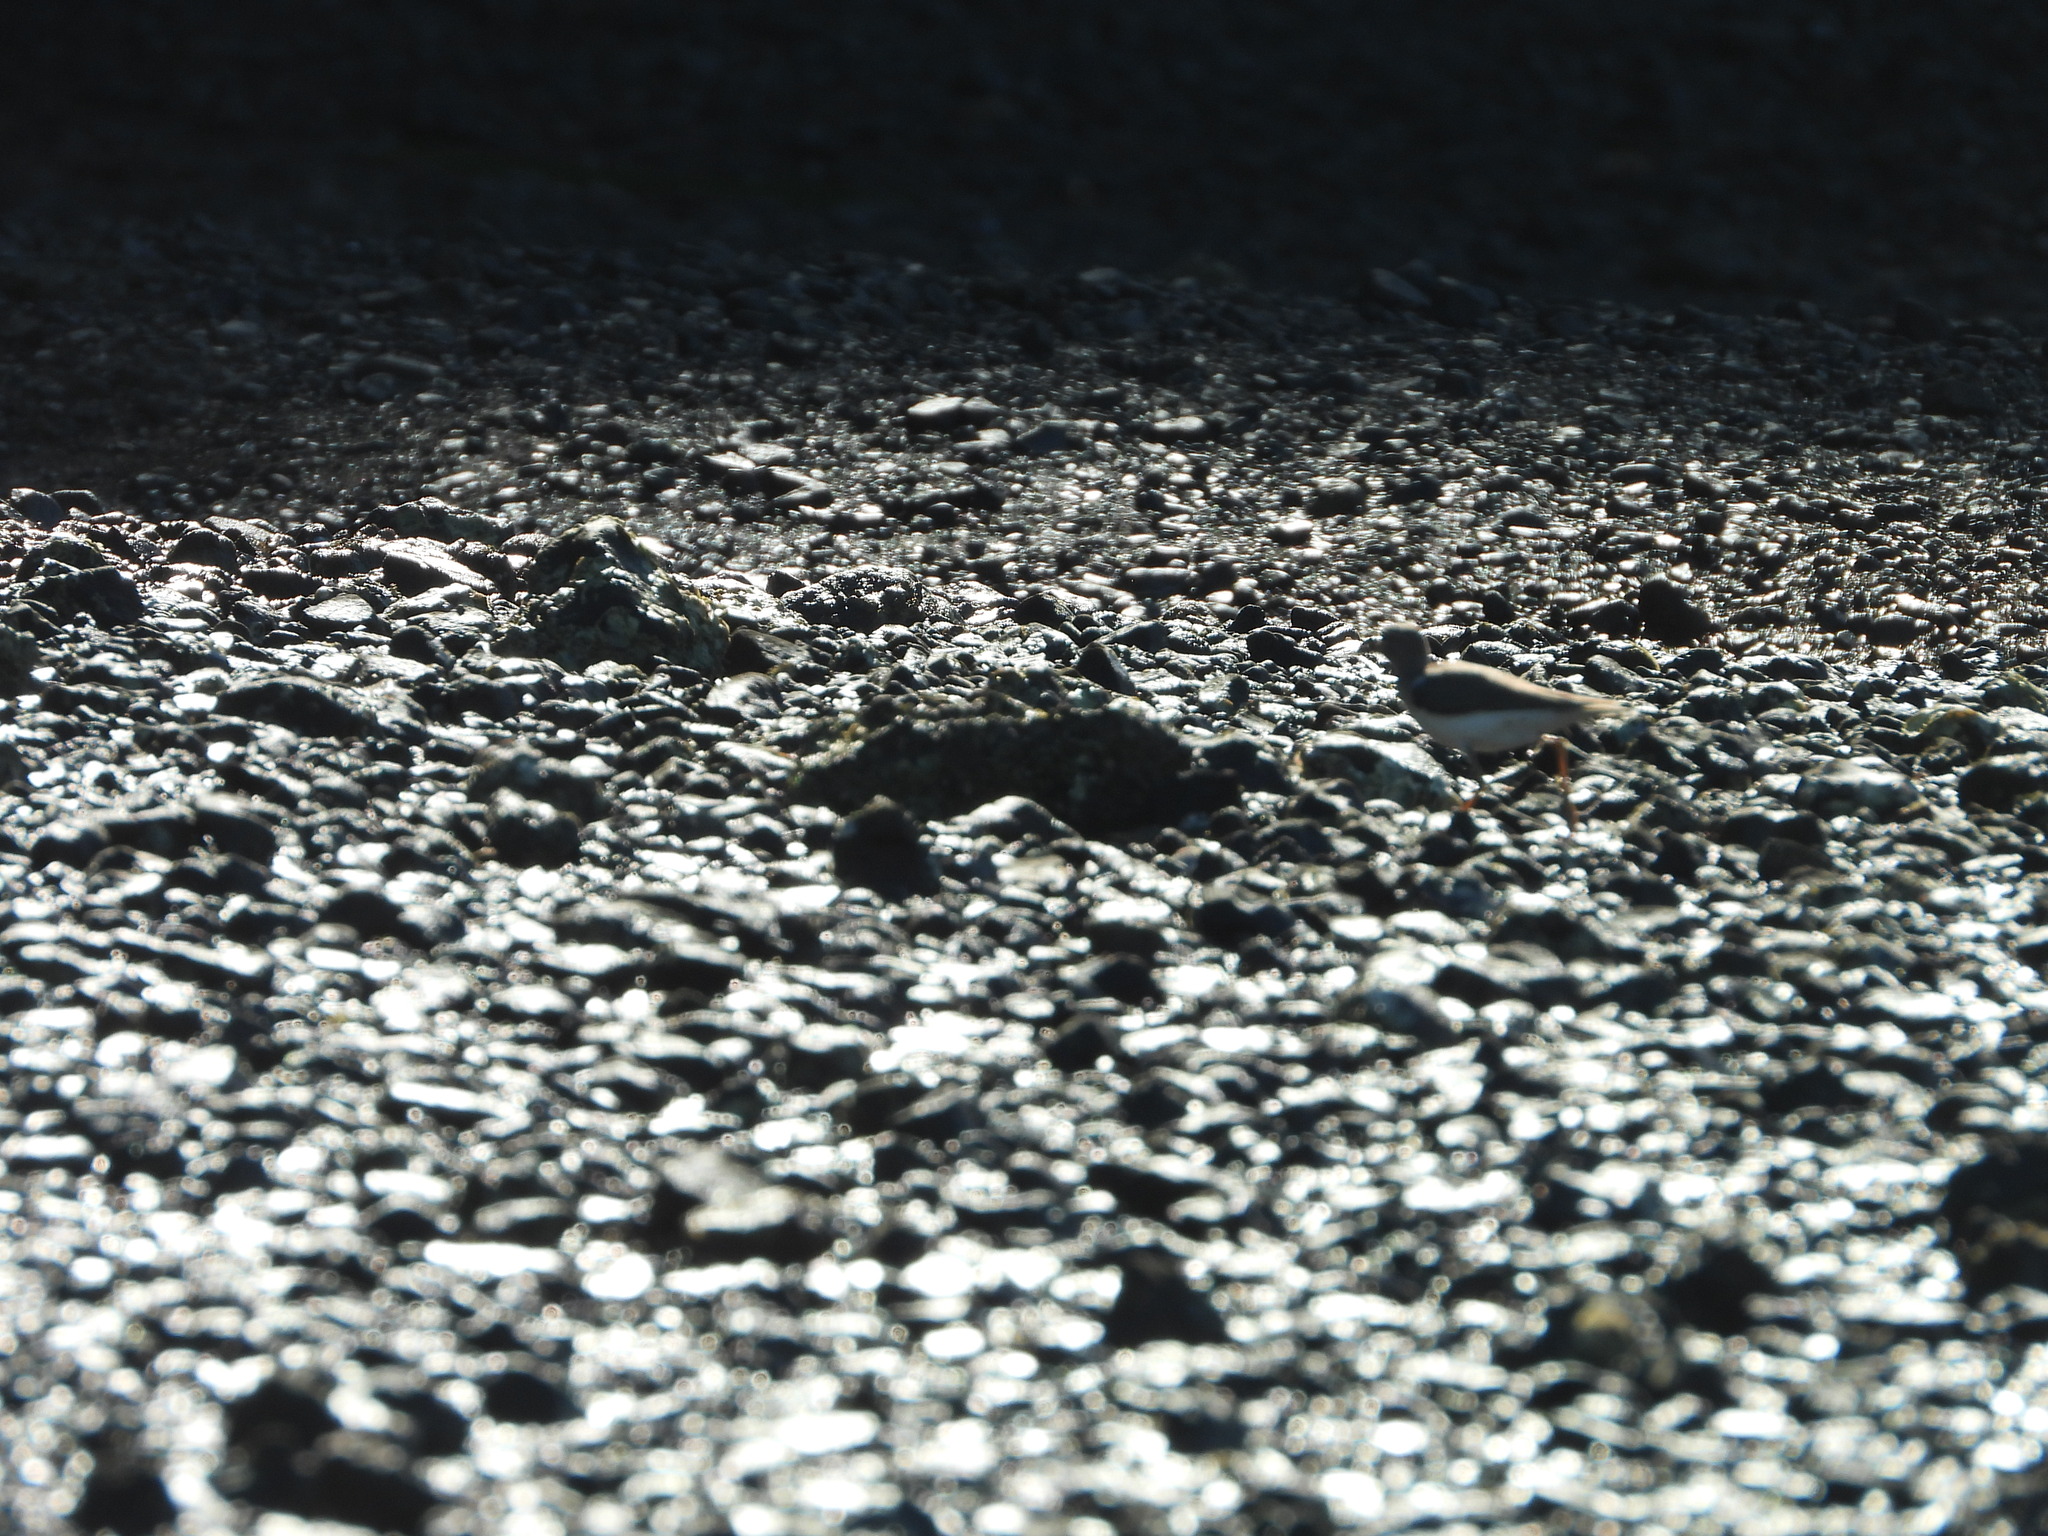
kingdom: Animalia
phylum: Chordata
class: Aves
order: Charadriiformes
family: Scolopacidae
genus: Actitis
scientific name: Actitis macularius
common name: Spotted sandpiper
